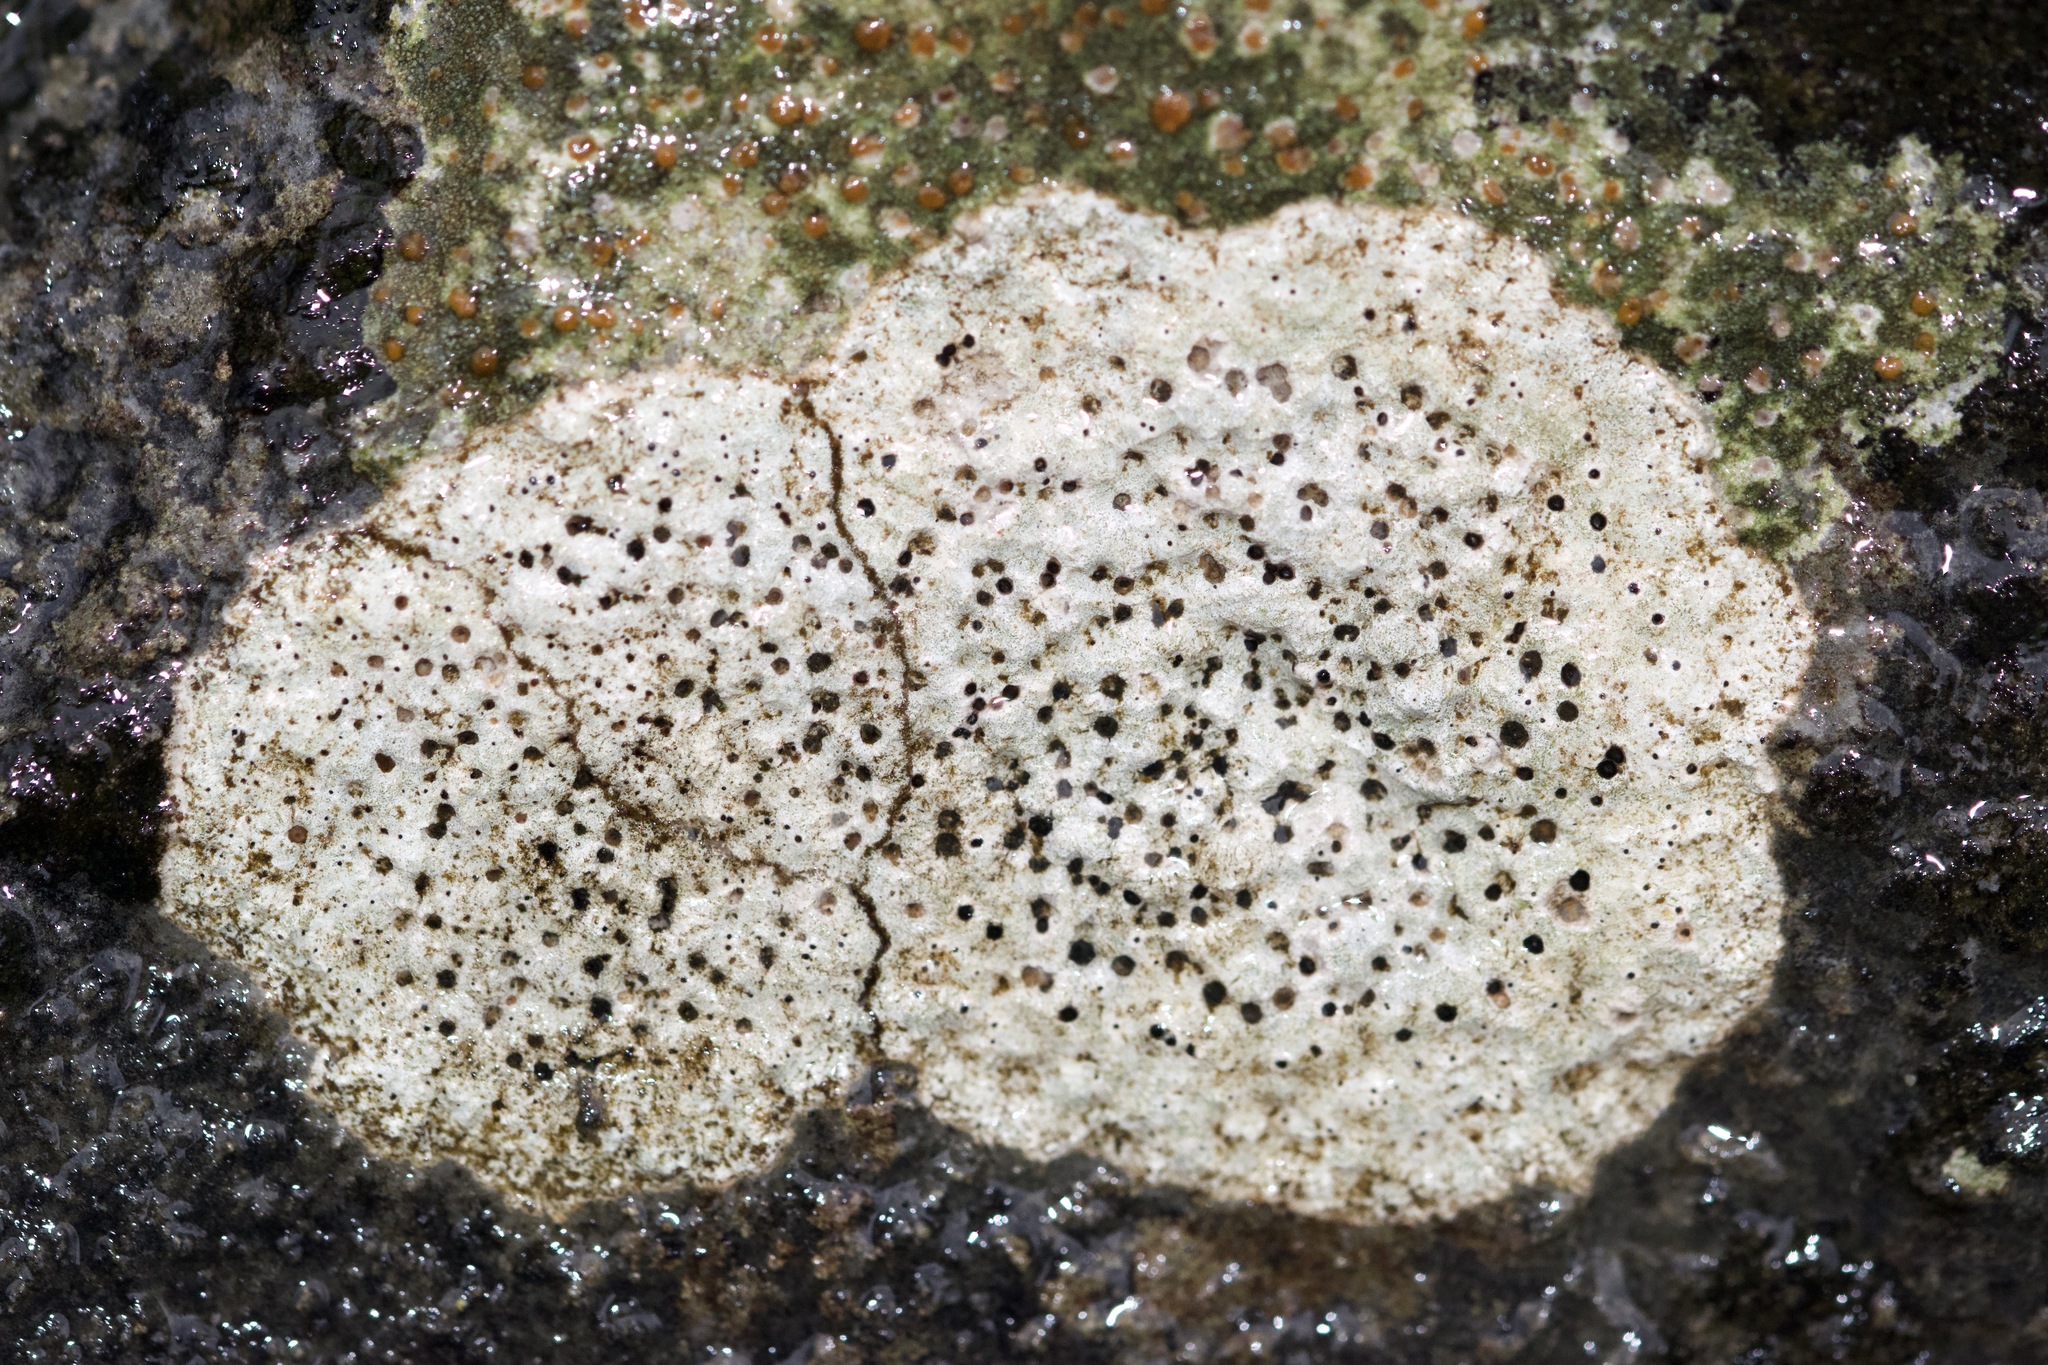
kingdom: Fungi
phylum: Ascomycota
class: Eurotiomycetes
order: Verrucariales
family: Verrucariaceae
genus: Bagliettoa
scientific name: Bagliettoa calciseda
